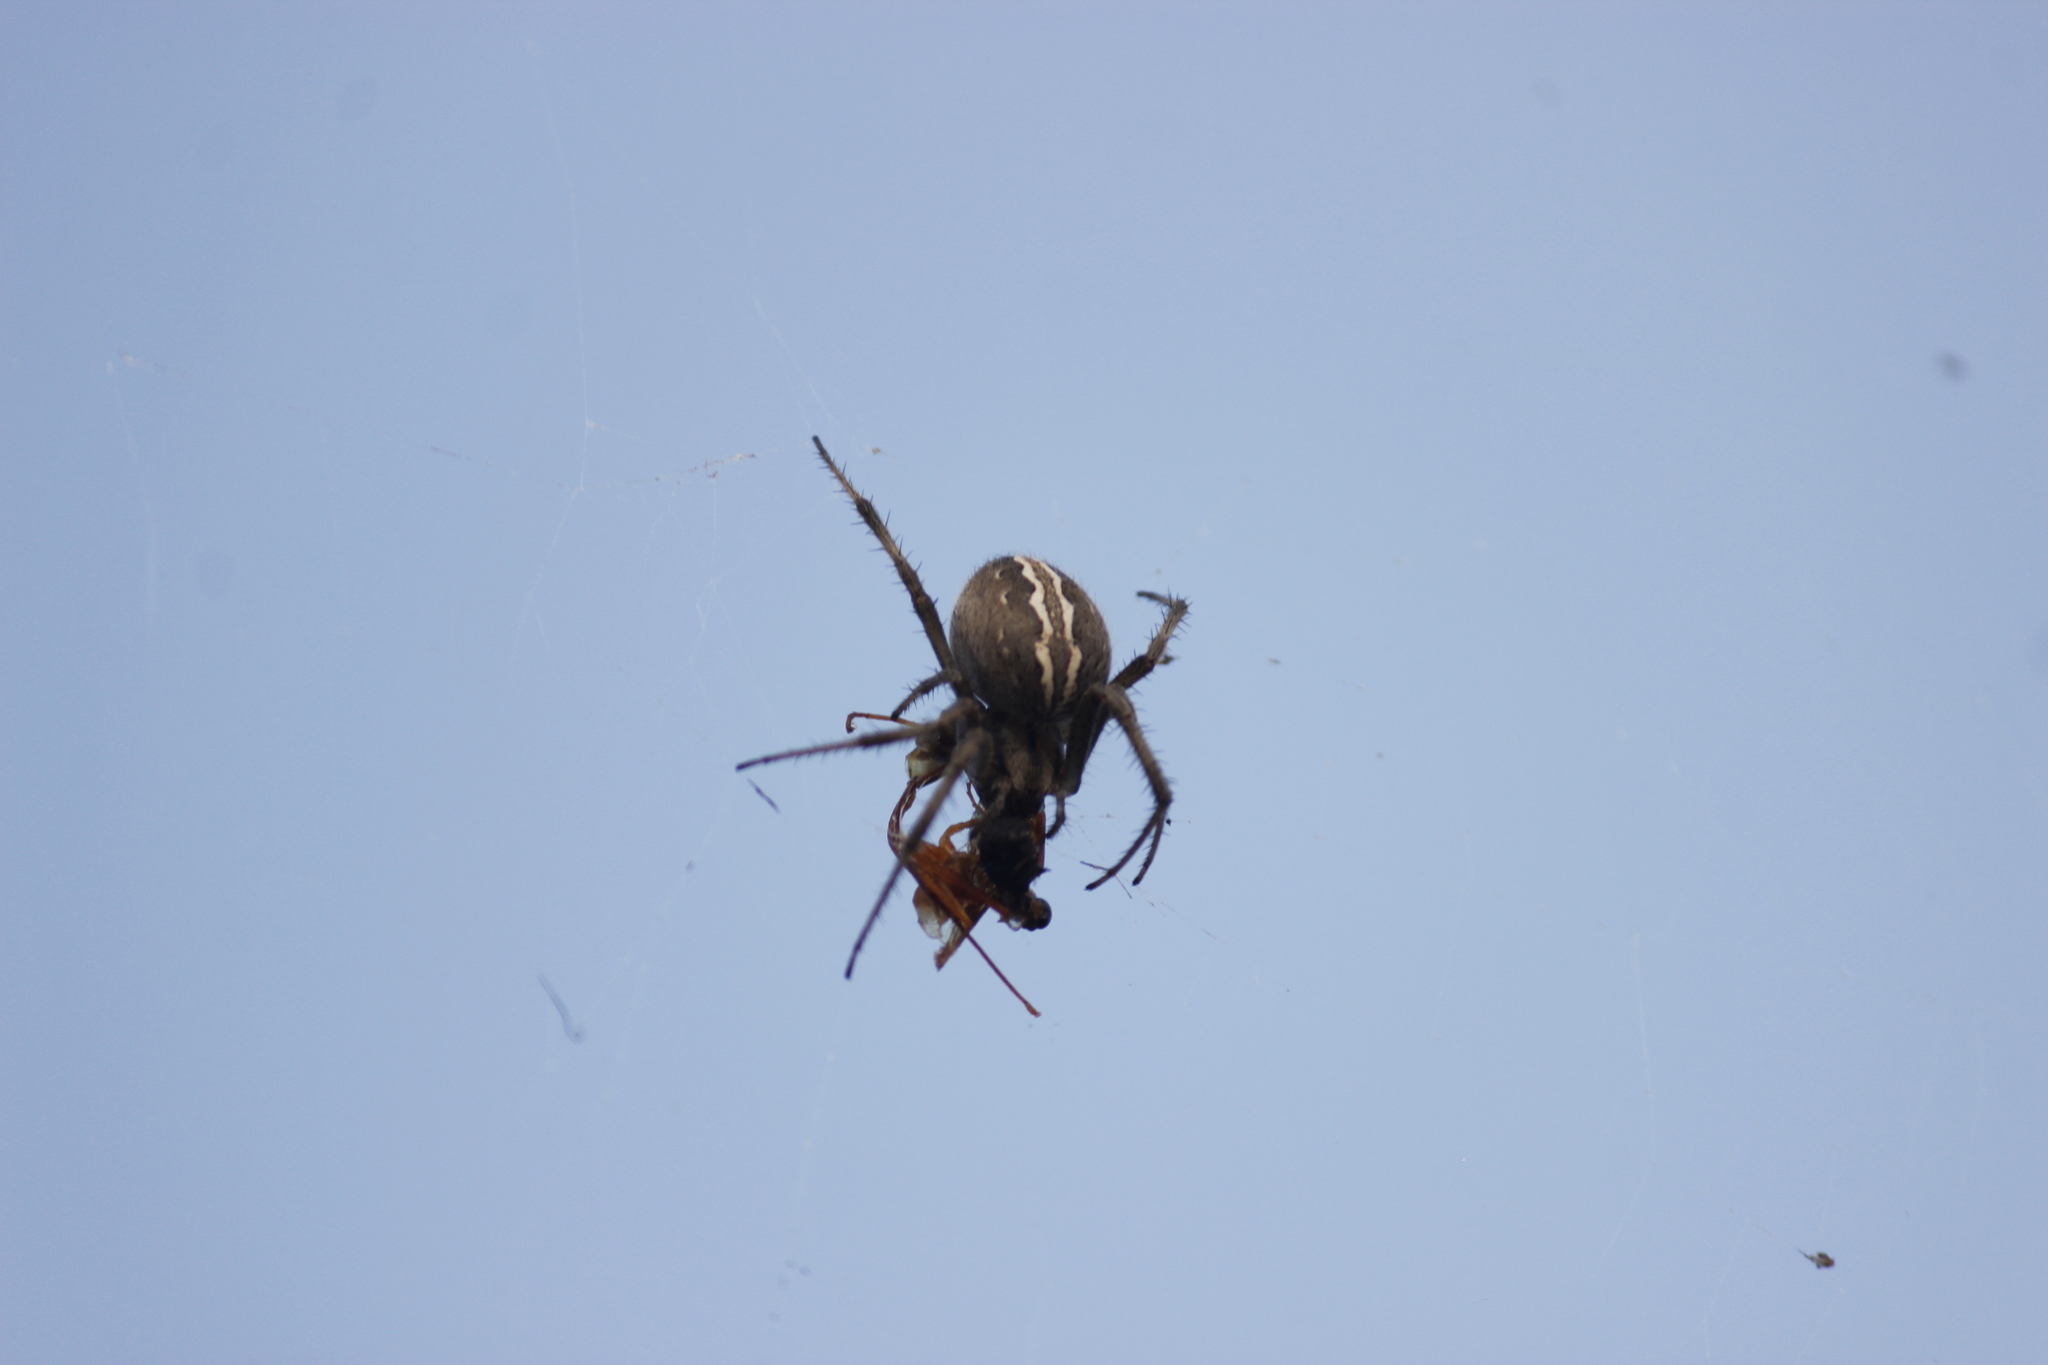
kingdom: Animalia
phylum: Arthropoda
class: Arachnida
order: Araneae
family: Araneidae
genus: Neoscona
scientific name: Neoscona moreli
